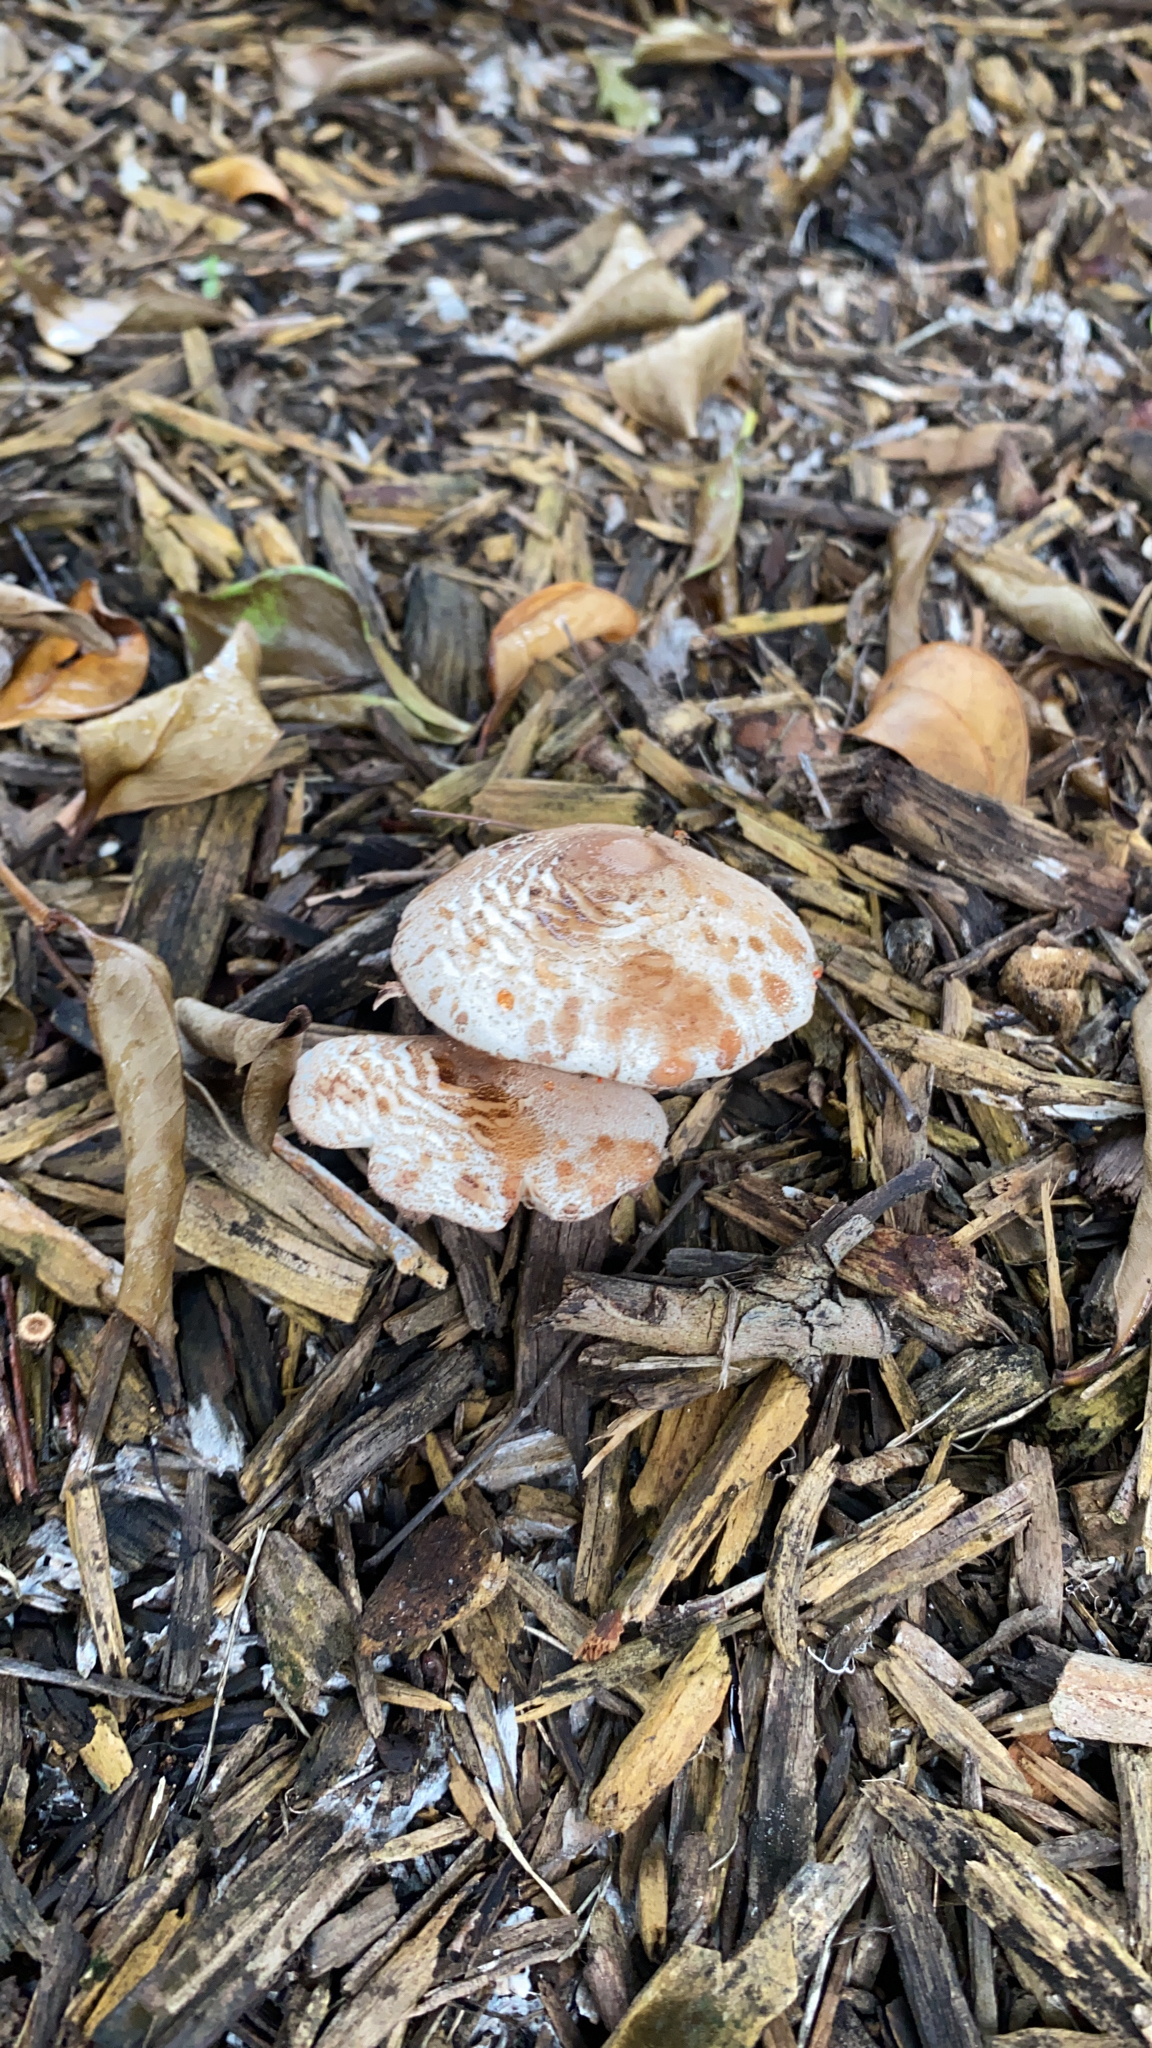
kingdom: Fungi
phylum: Basidiomycota
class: Agaricomycetes
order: Agaricales
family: Agaricaceae
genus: Leucoagaricus
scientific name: Leucoagaricus americanus
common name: Reddening lepiota
